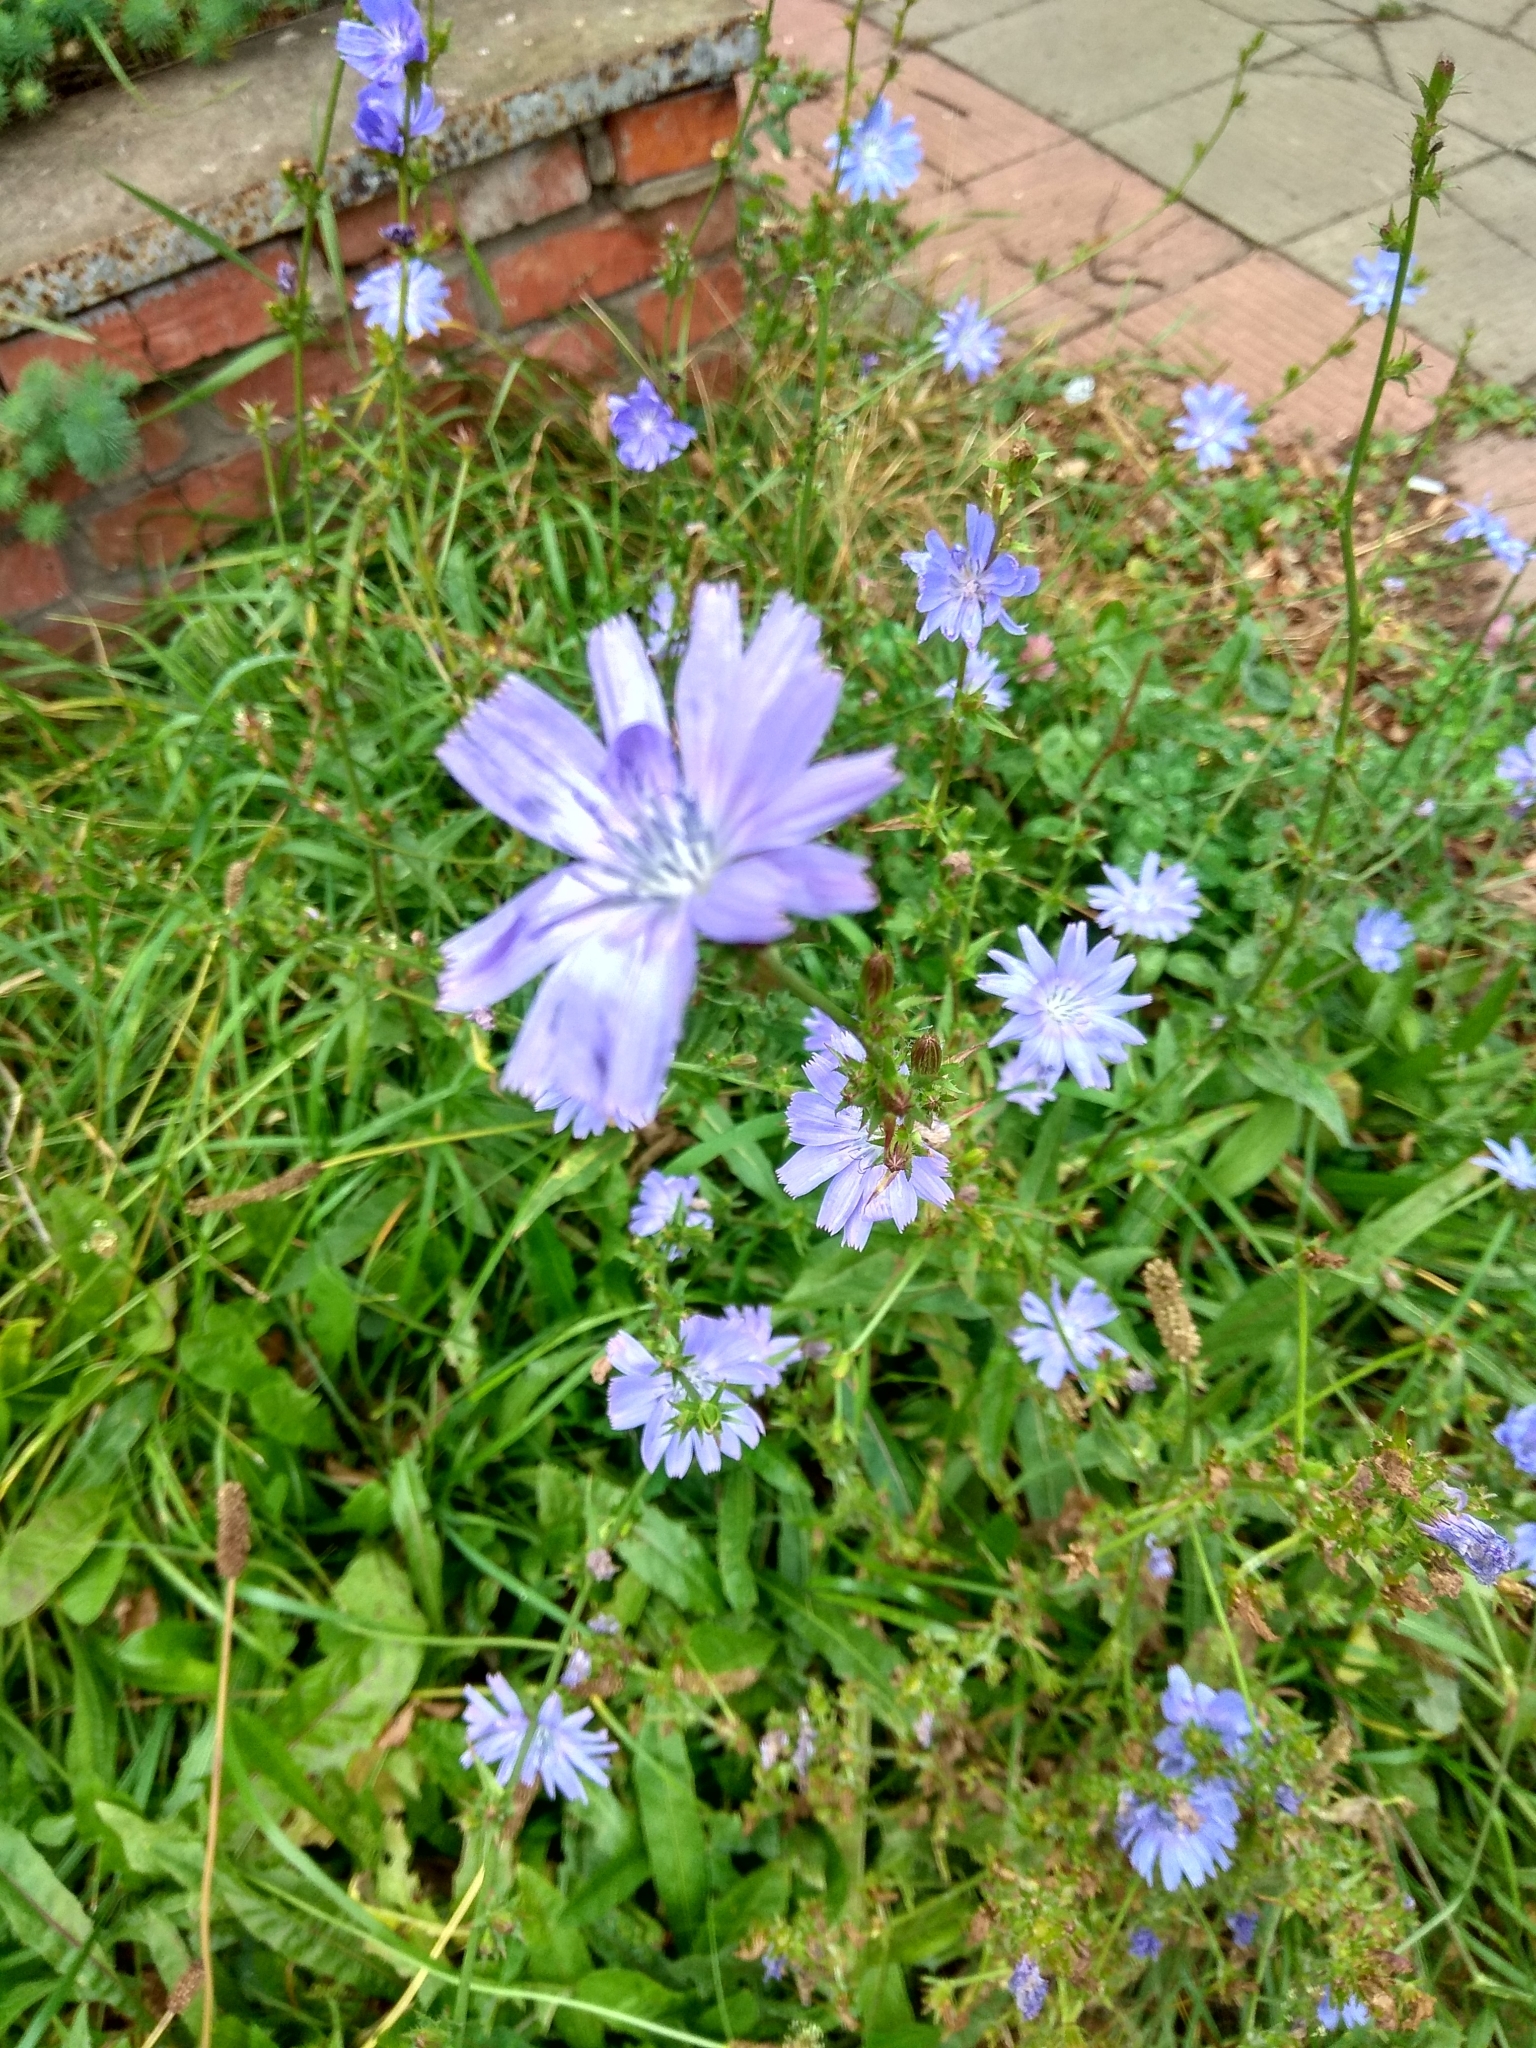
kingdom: Plantae
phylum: Tracheophyta
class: Magnoliopsida
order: Asterales
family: Asteraceae
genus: Cichorium
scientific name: Cichorium intybus
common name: Chicory
